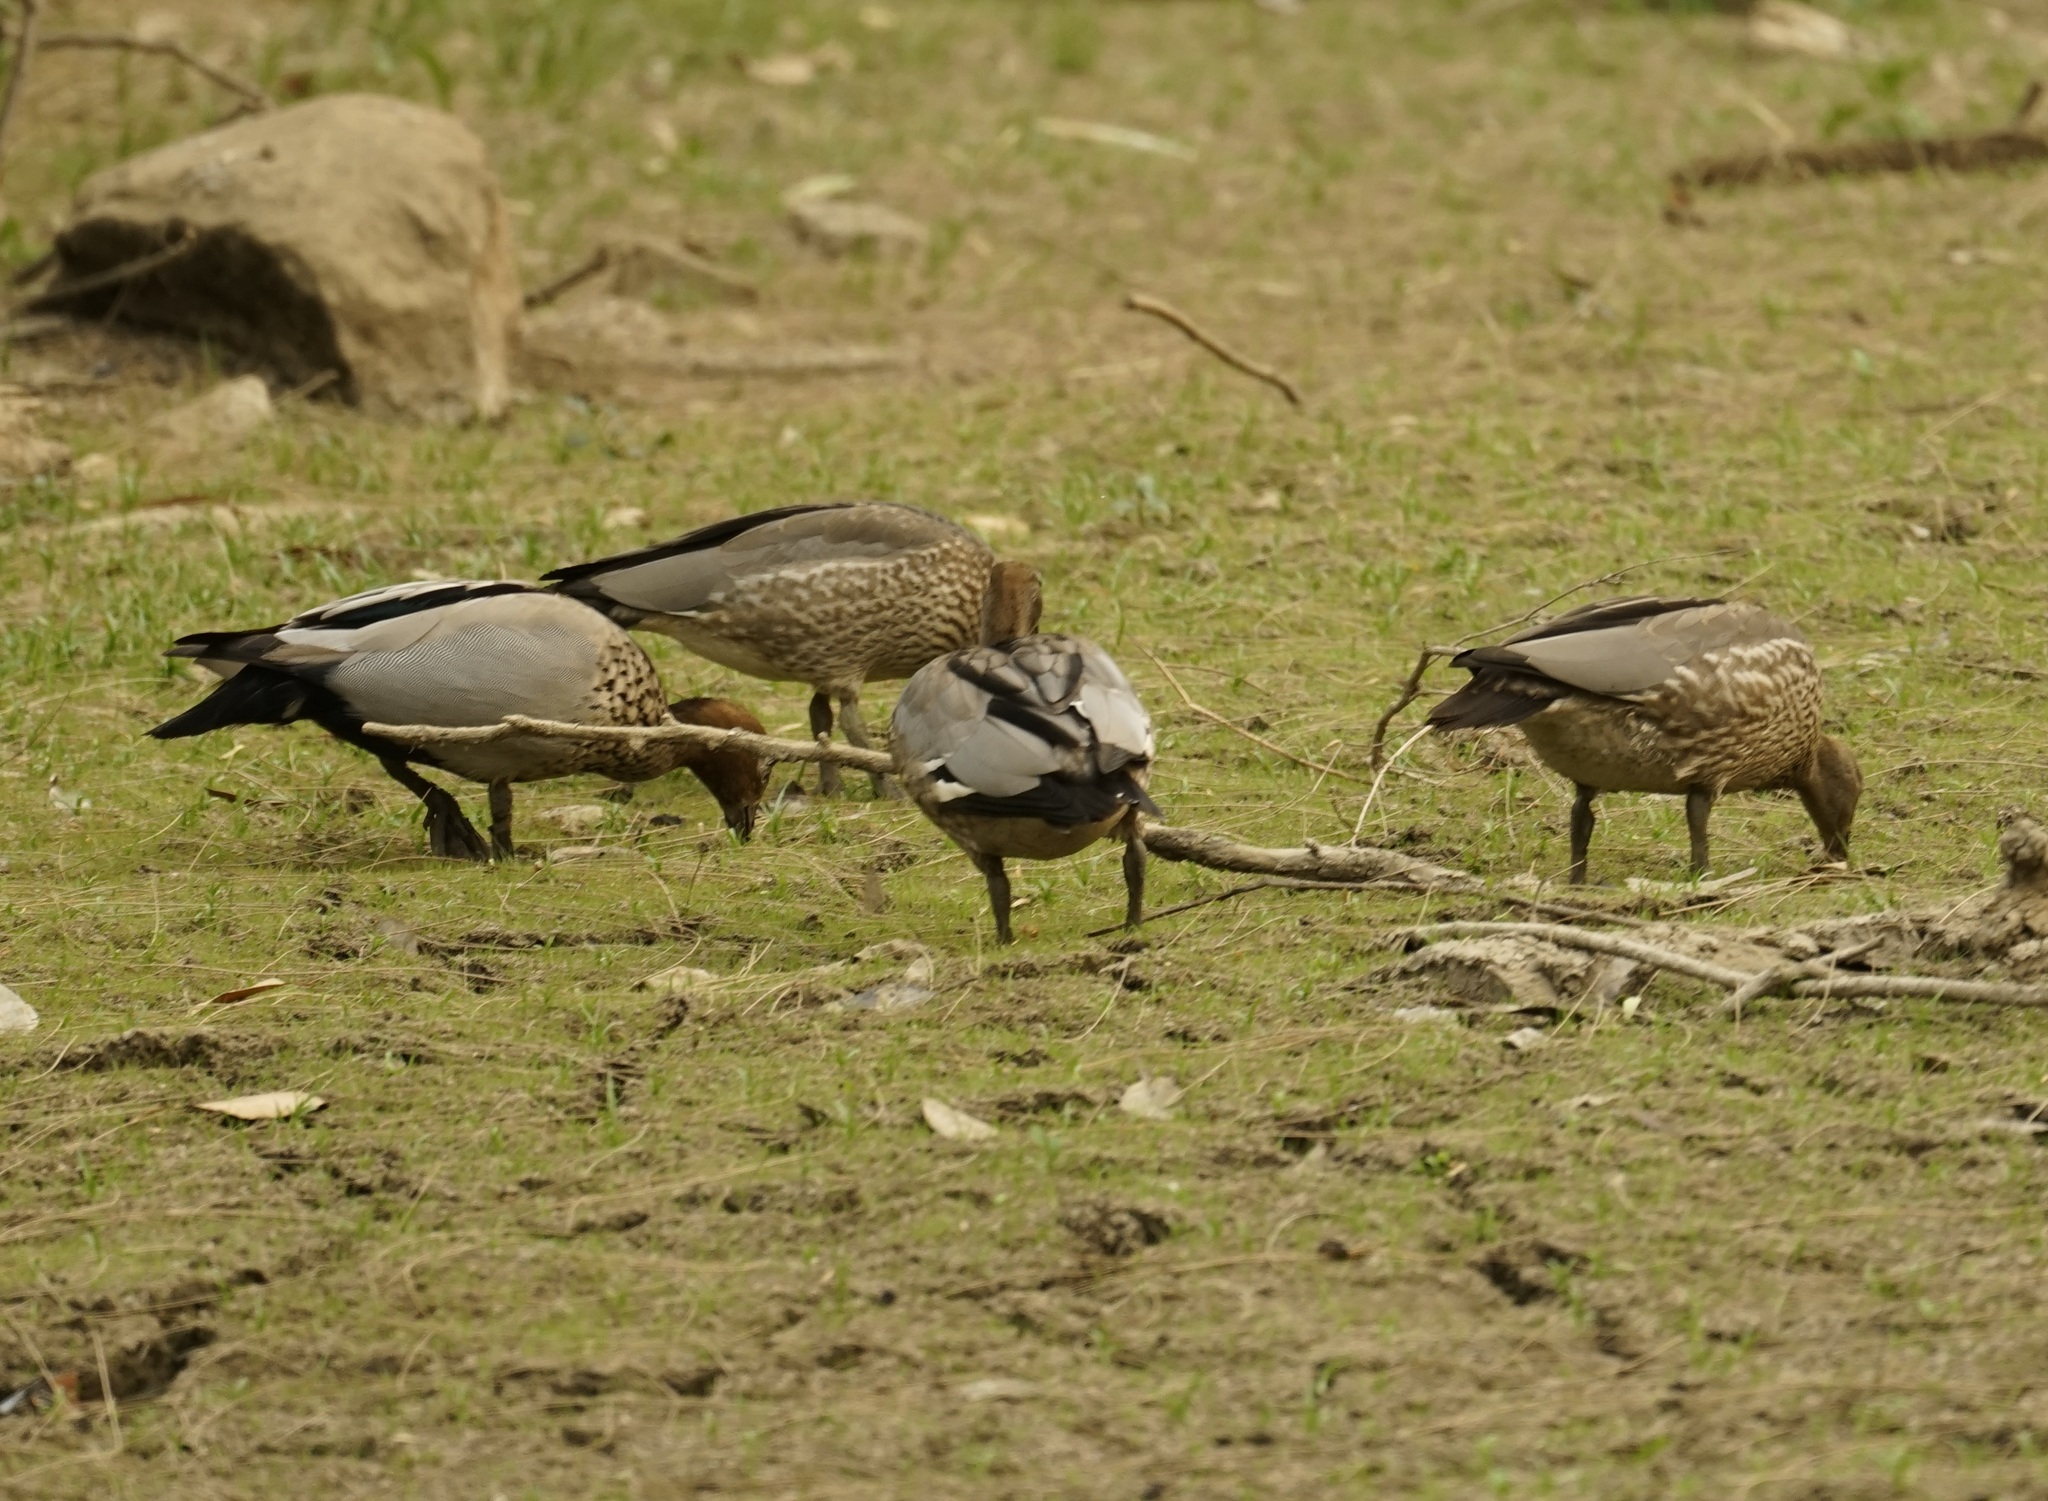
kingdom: Animalia
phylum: Chordata
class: Aves
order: Anseriformes
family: Anatidae
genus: Chenonetta
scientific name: Chenonetta jubata
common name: Maned duck
